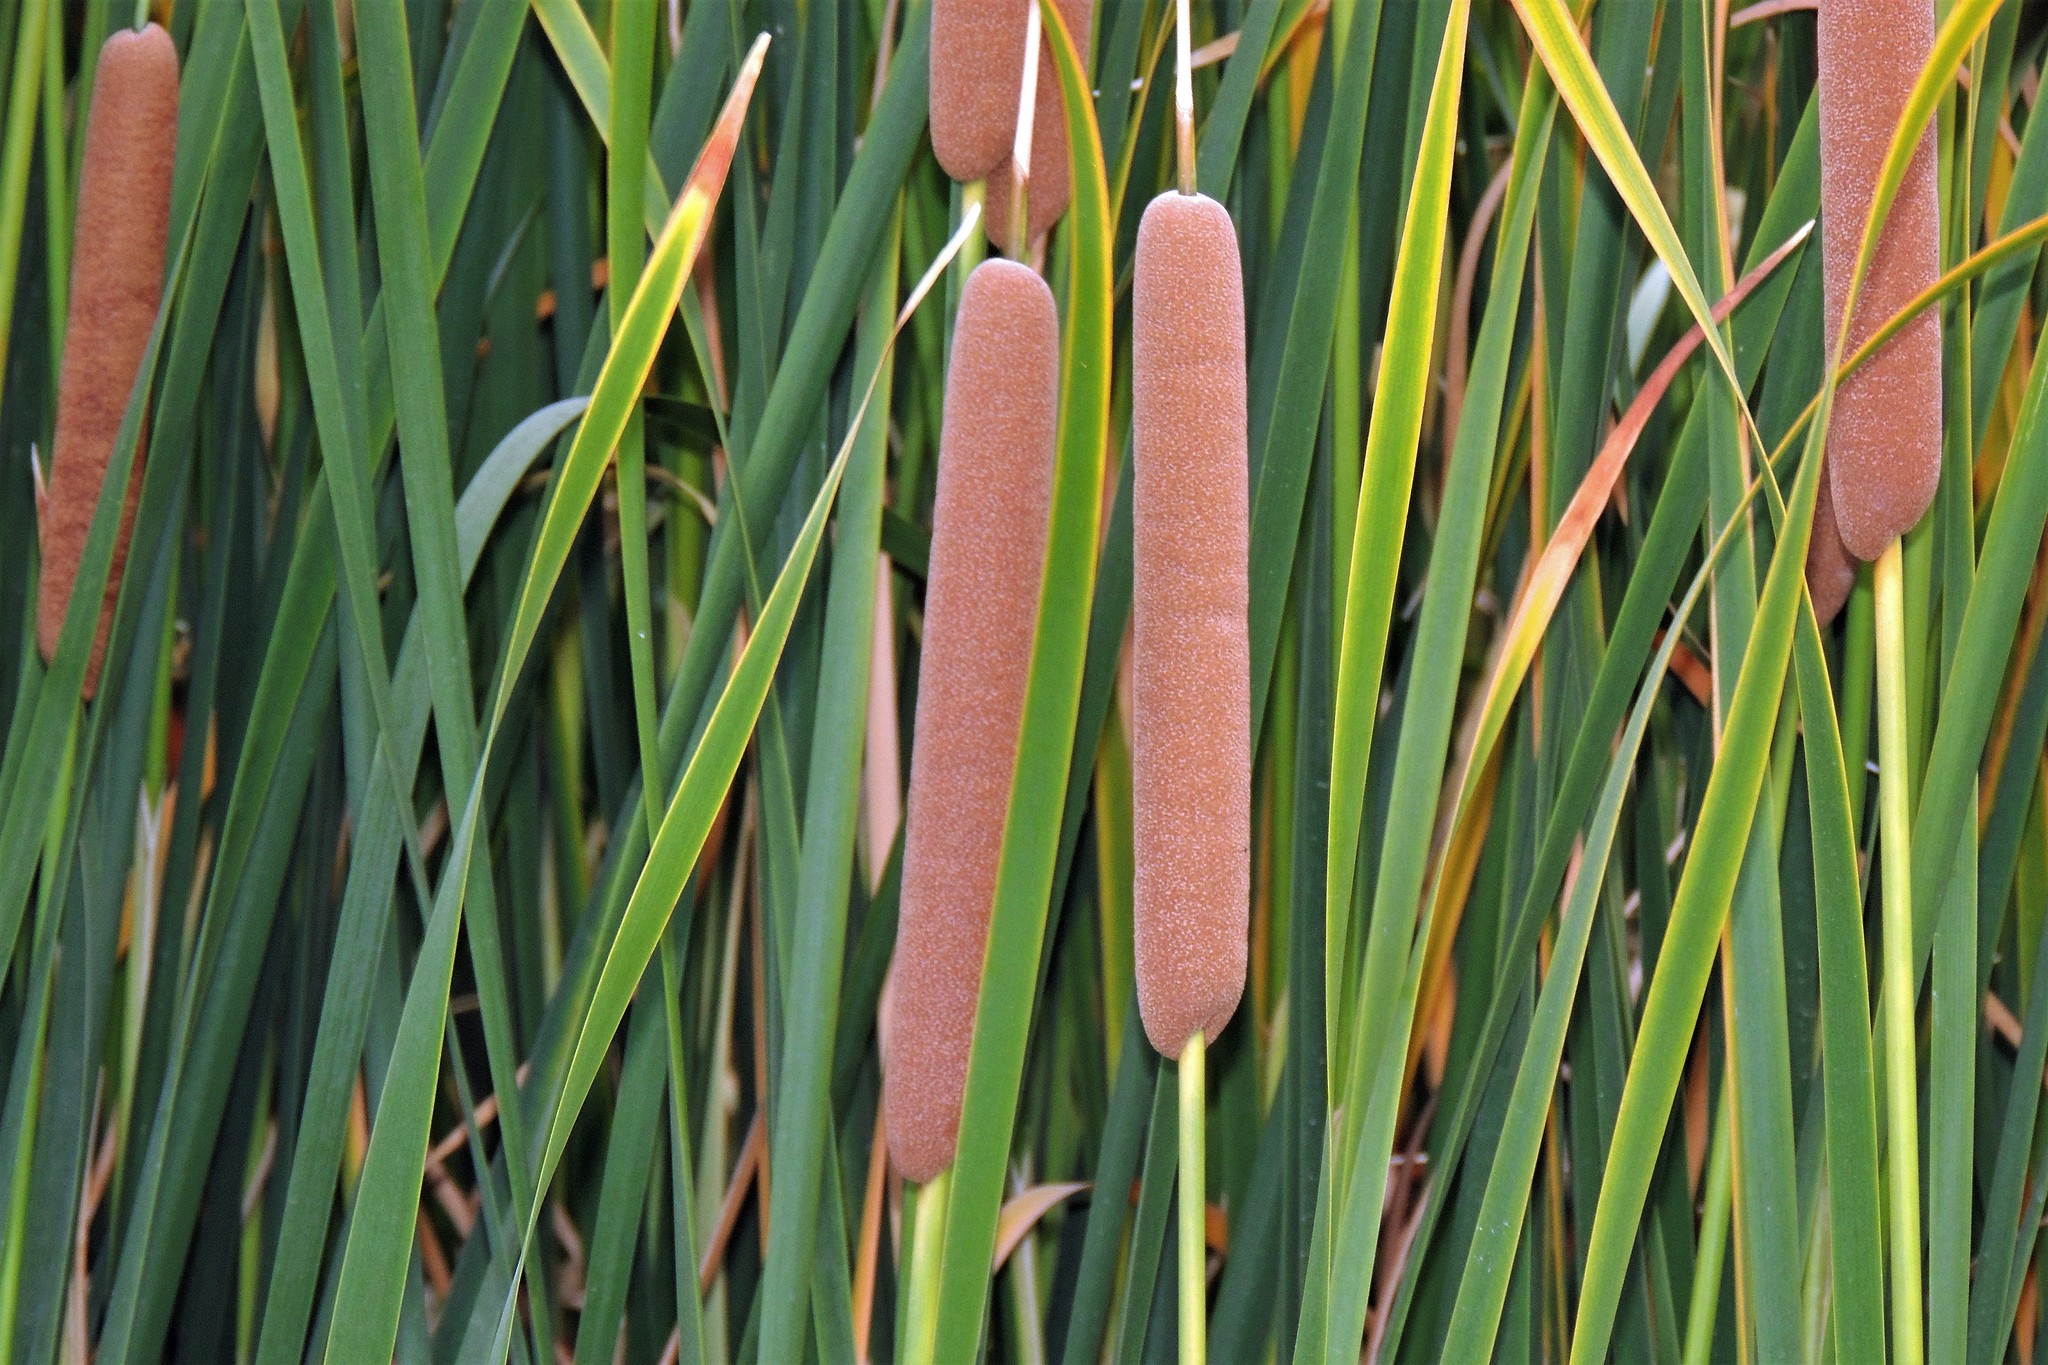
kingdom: Plantae
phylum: Tracheophyta
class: Liliopsida
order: Poales
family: Typhaceae
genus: Typha
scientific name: Typha domingensis
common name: Southern cattail
